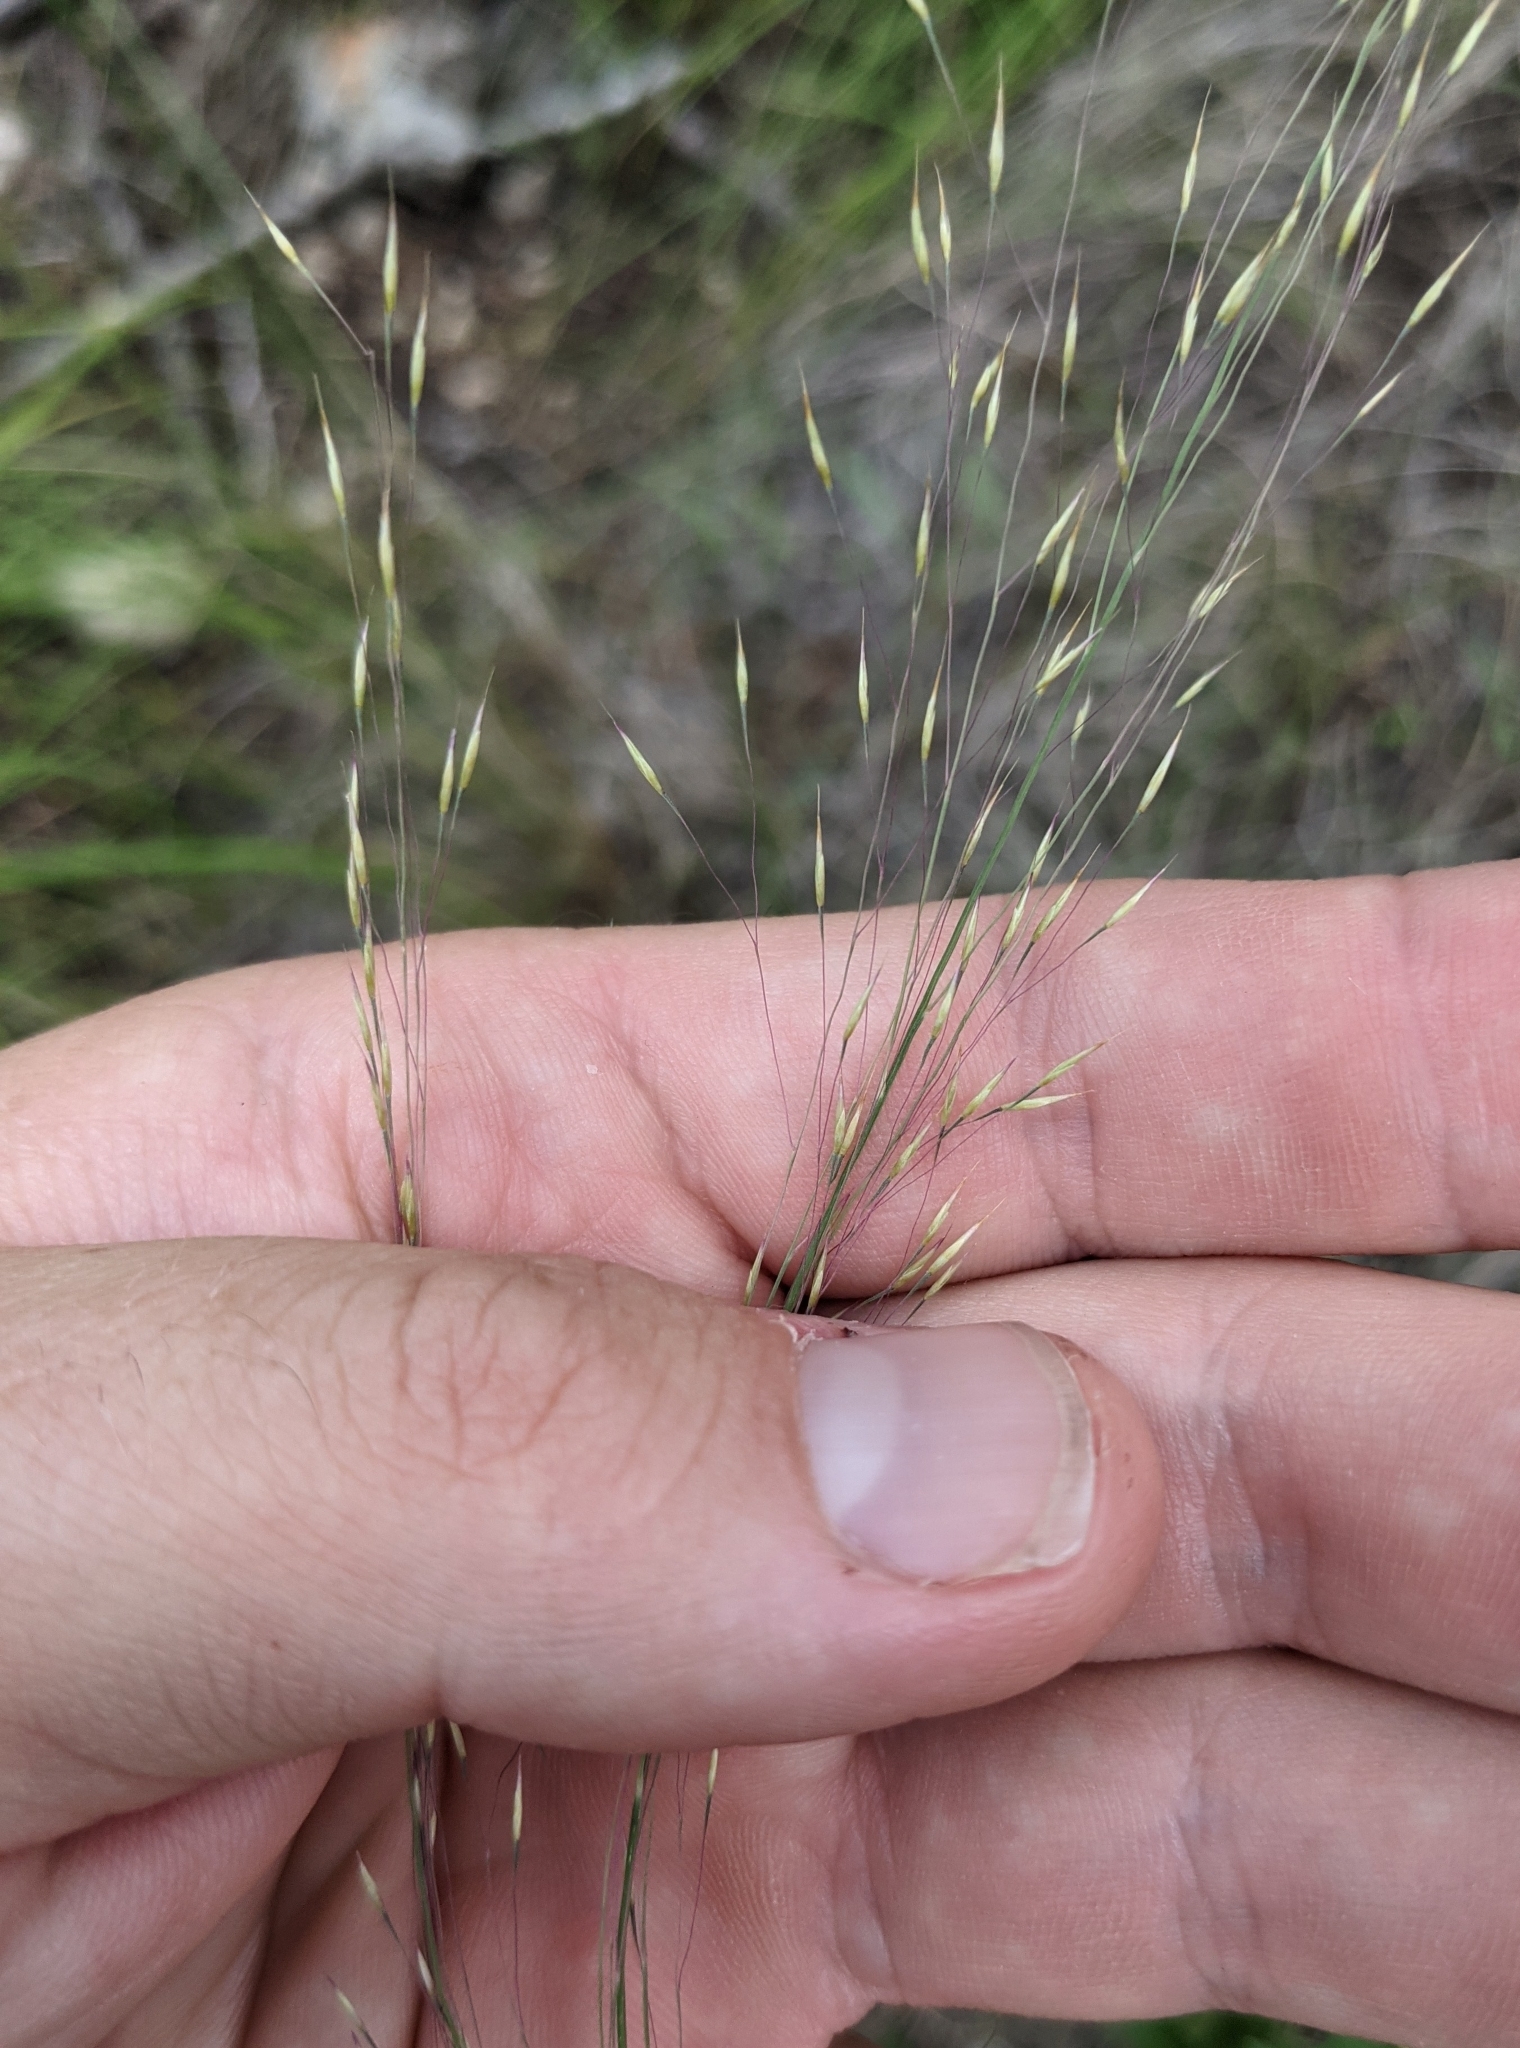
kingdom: Plantae
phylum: Tracheophyta
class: Liliopsida
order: Poales
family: Poaceae
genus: Muhlenbergia
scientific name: Muhlenbergia reverchonii
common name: Seep muhly
